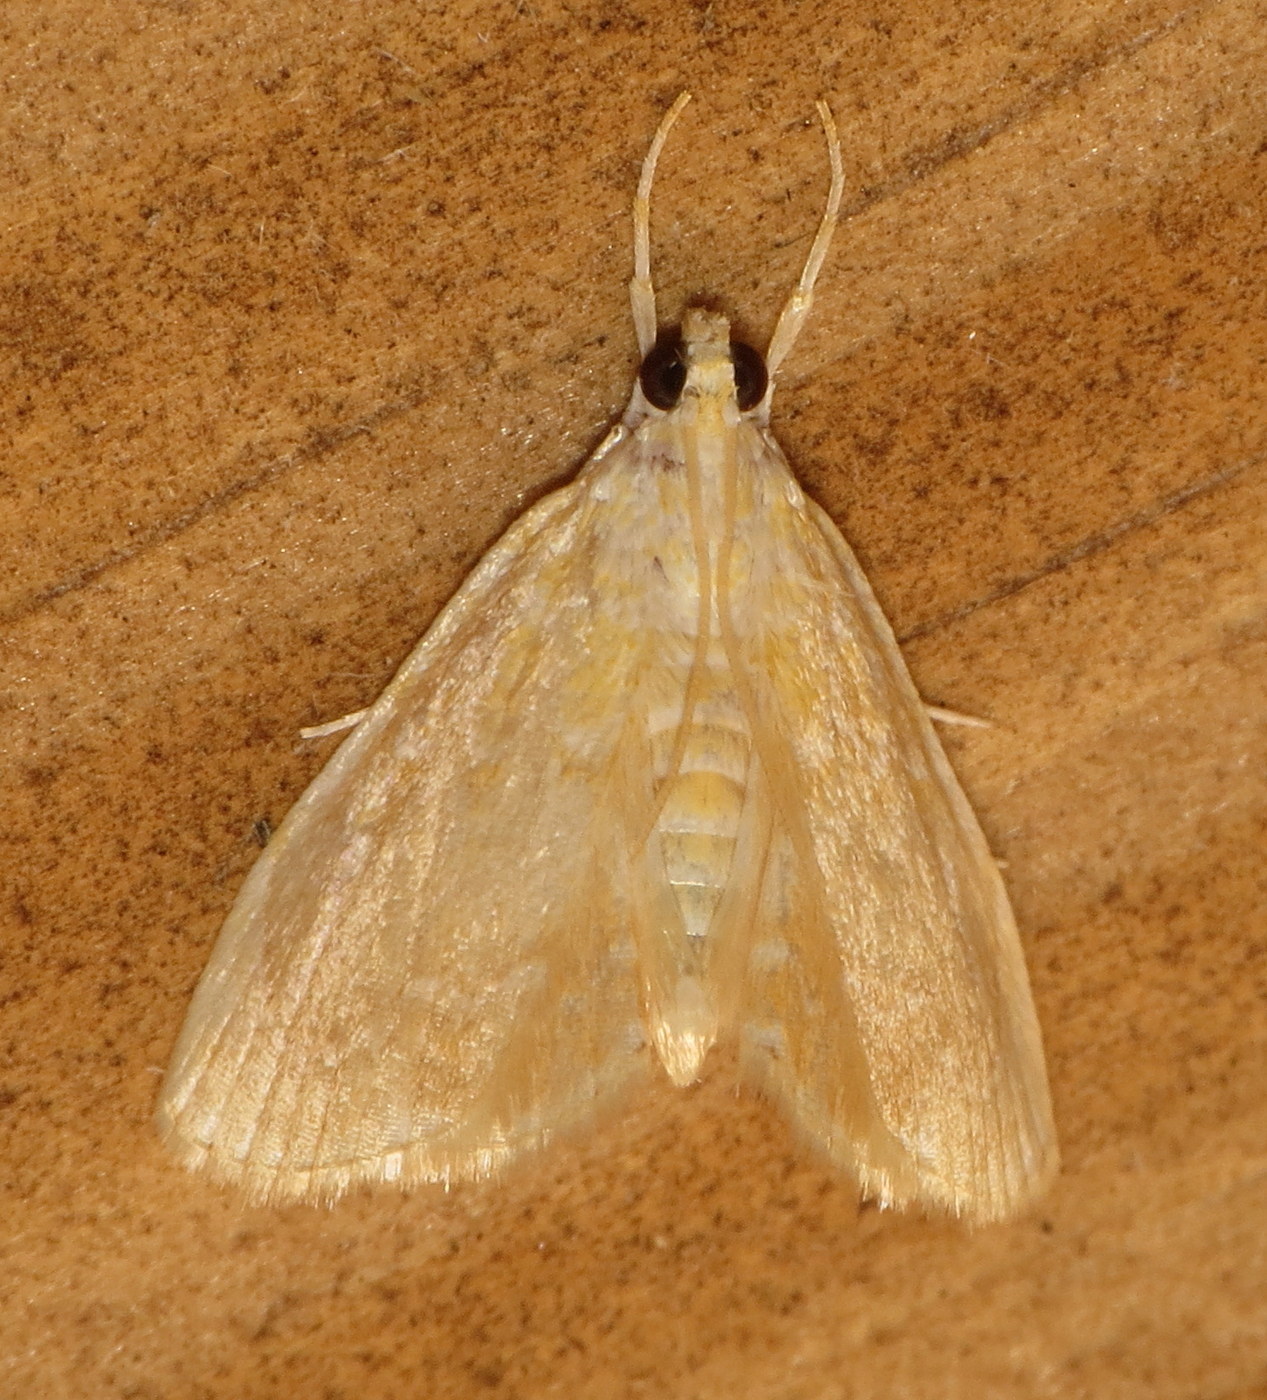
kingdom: Animalia
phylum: Arthropoda
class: Insecta
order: Lepidoptera
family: Crambidae
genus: Glaphyria
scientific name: Glaphyria glaphyralis
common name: Common glaphyria moth
